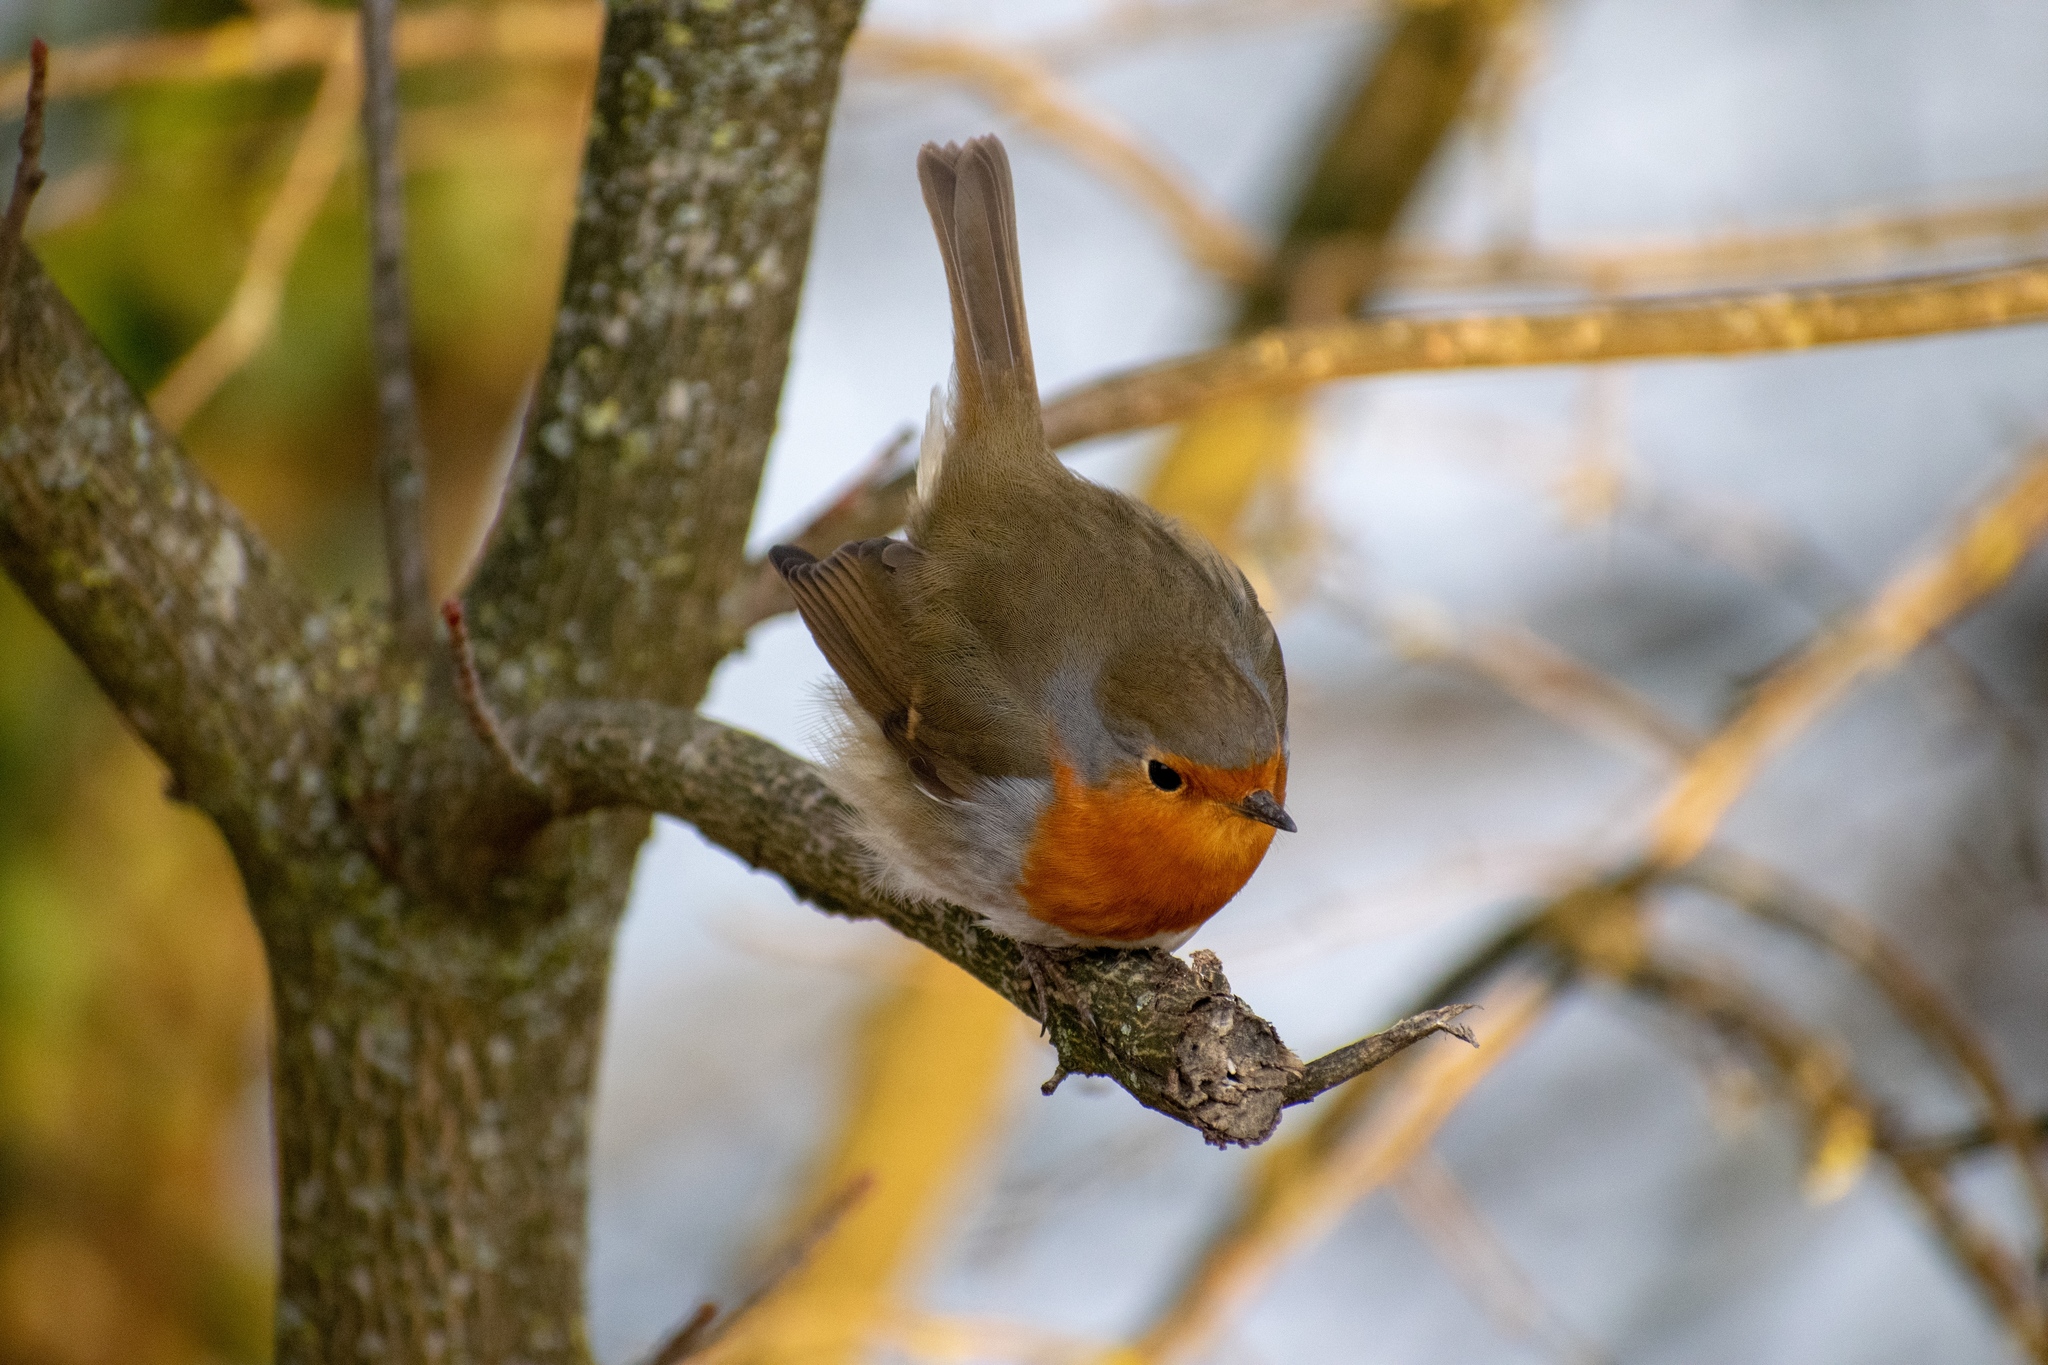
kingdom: Animalia
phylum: Chordata
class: Aves
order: Passeriformes
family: Muscicapidae
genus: Erithacus
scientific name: Erithacus rubecula
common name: European robin
